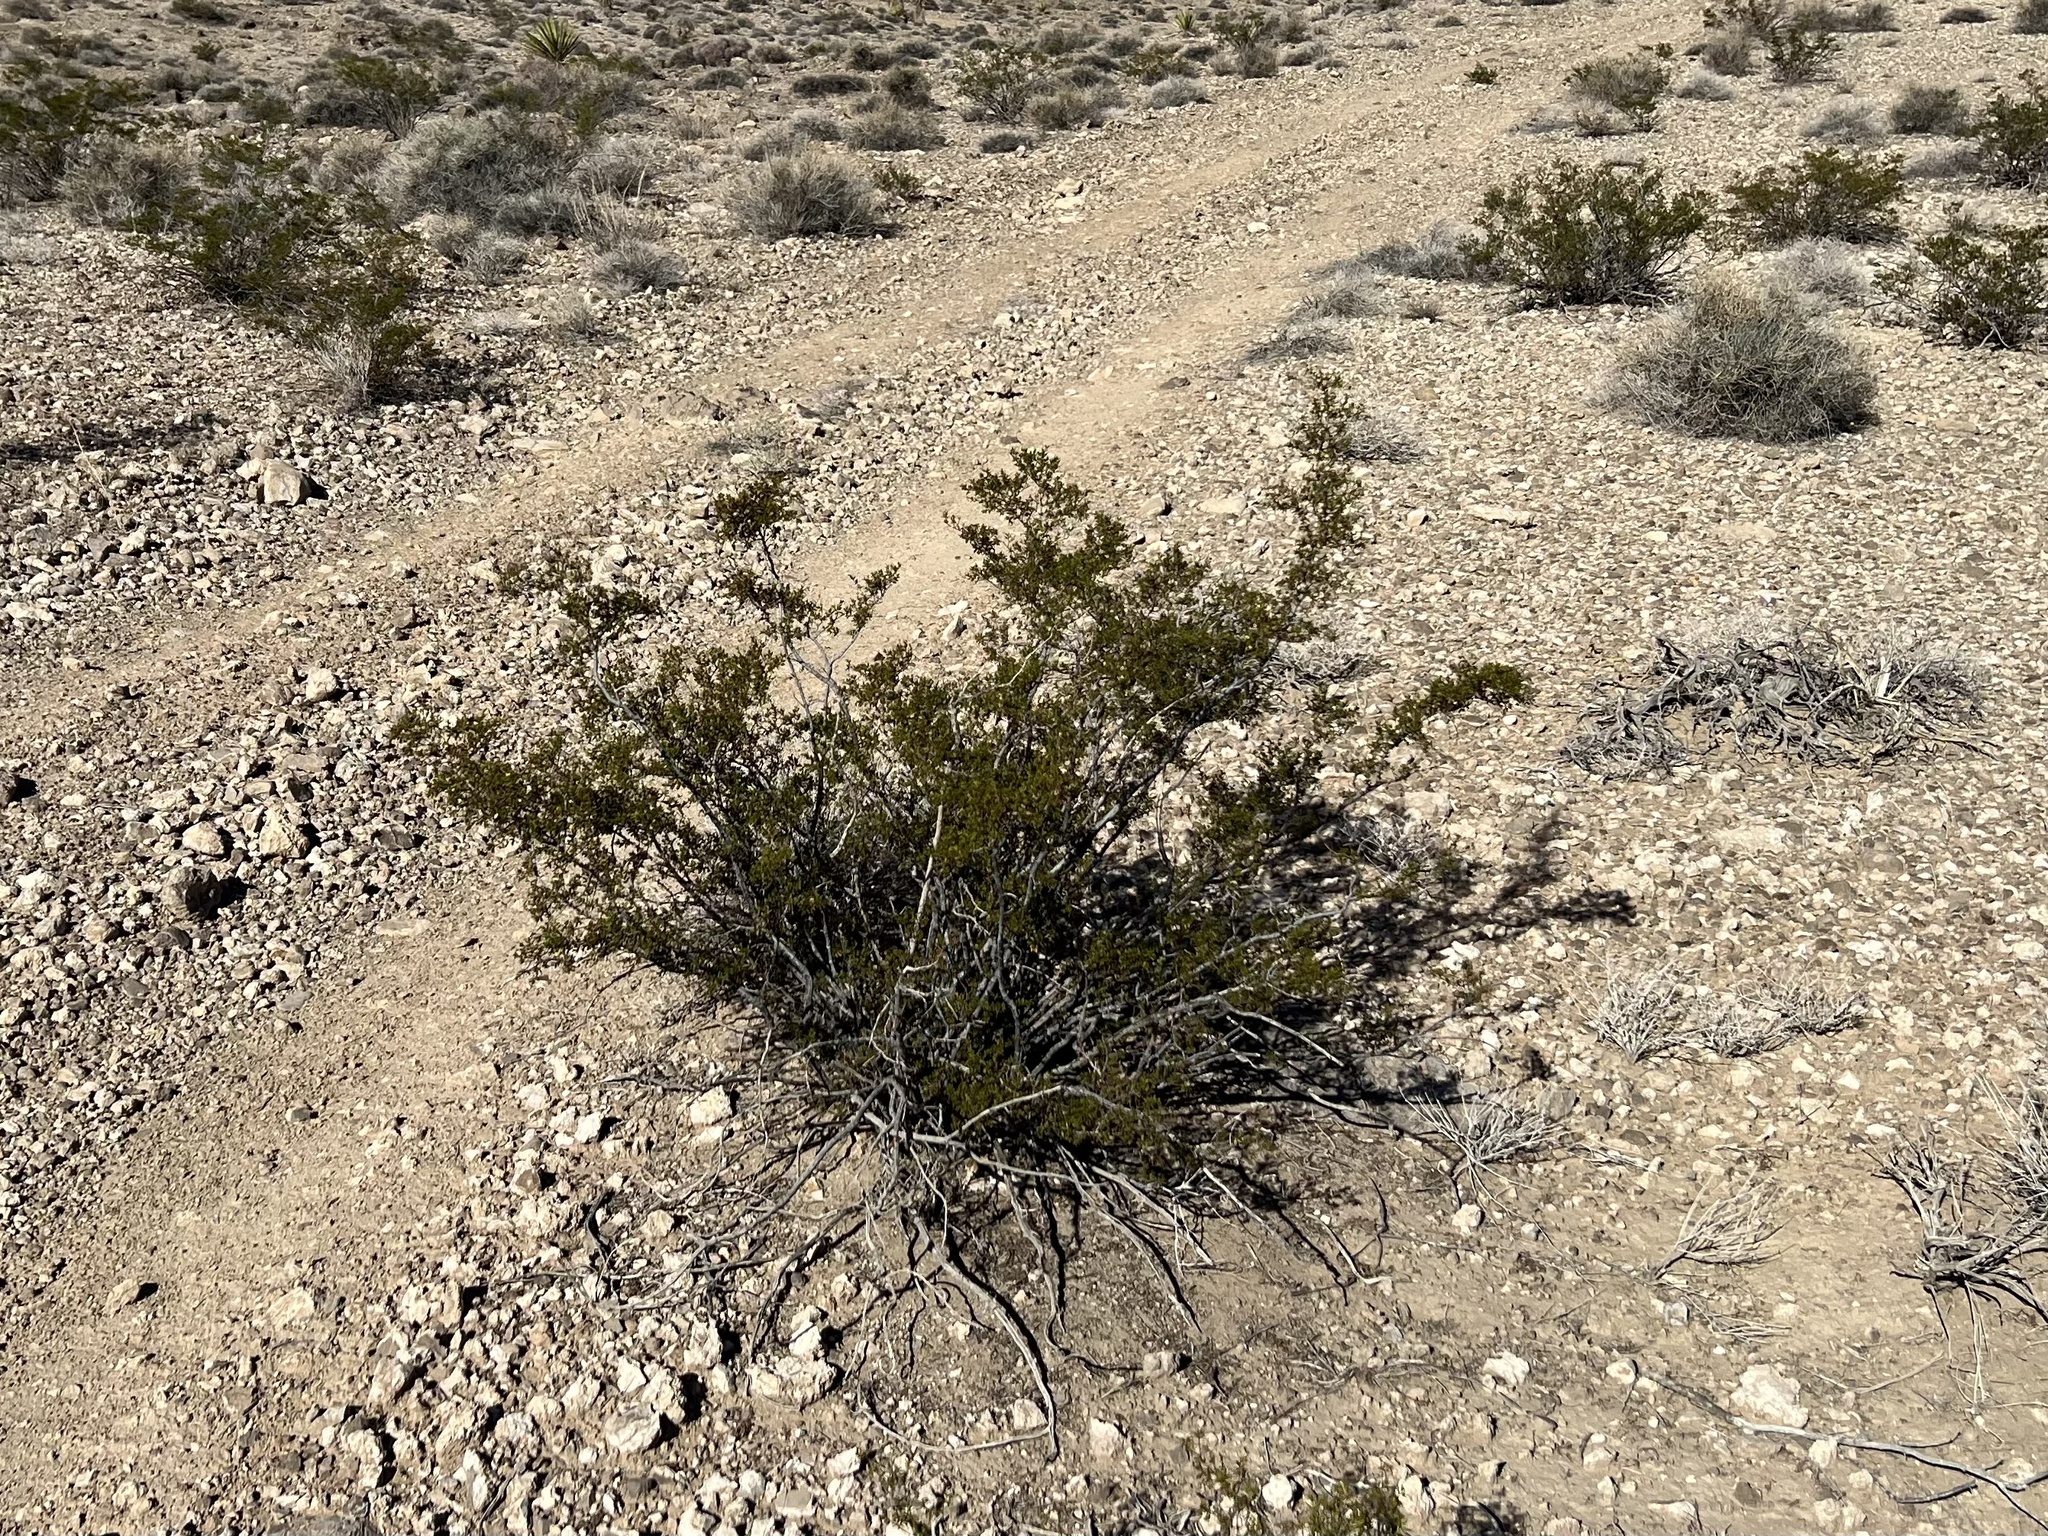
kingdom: Plantae
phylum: Tracheophyta
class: Magnoliopsida
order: Zygophyllales
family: Zygophyllaceae
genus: Larrea
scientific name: Larrea tridentata
